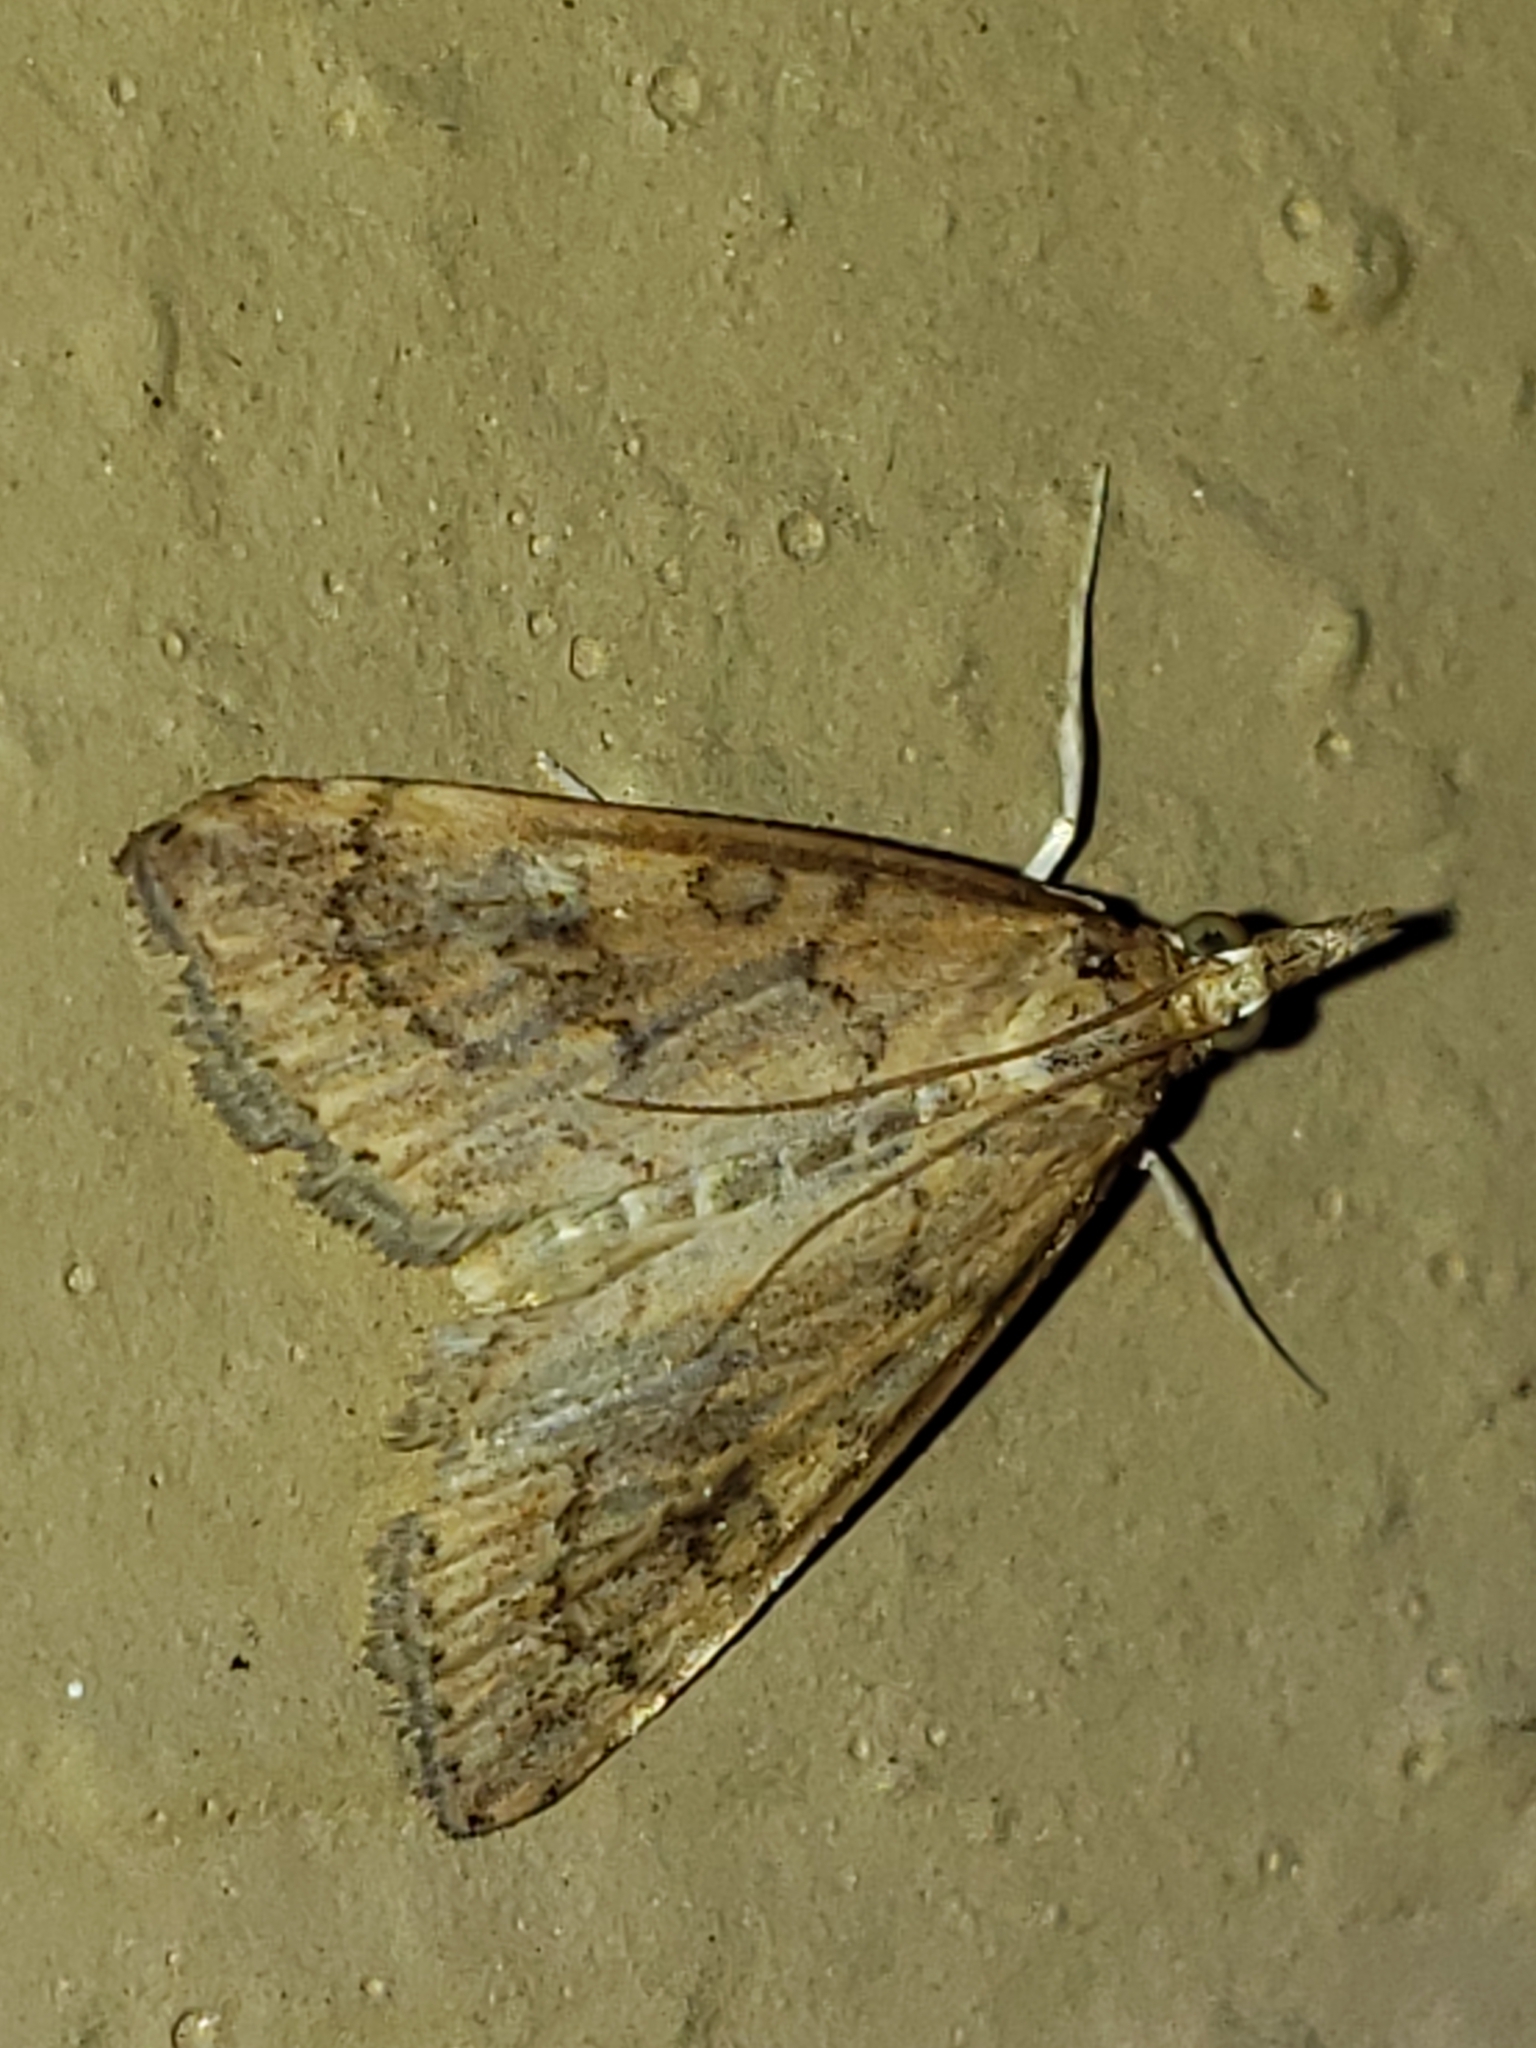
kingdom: Animalia
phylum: Arthropoda
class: Insecta
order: Lepidoptera
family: Crambidae
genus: Udea
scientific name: Udea rubigalis
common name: Celery leaftier moth
